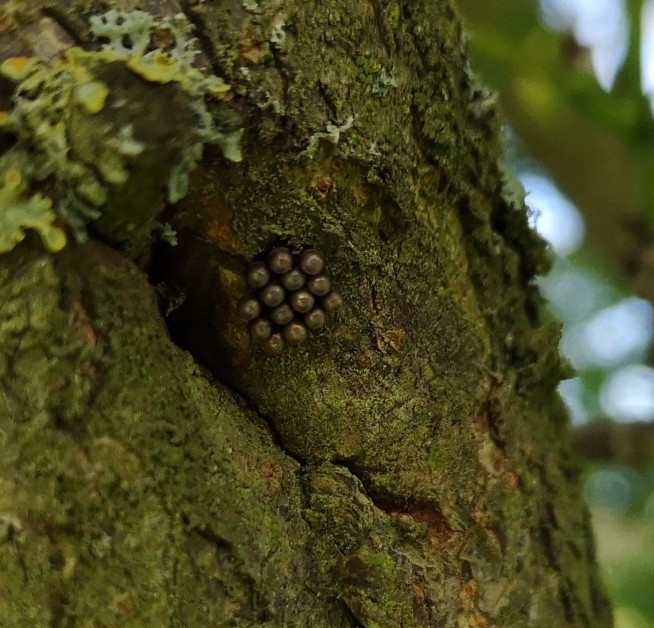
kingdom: Animalia
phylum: Arthropoda
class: Insecta
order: Hemiptera
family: Pentatomidae
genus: Rhaphigaster
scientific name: Rhaphigaster nebulosa
